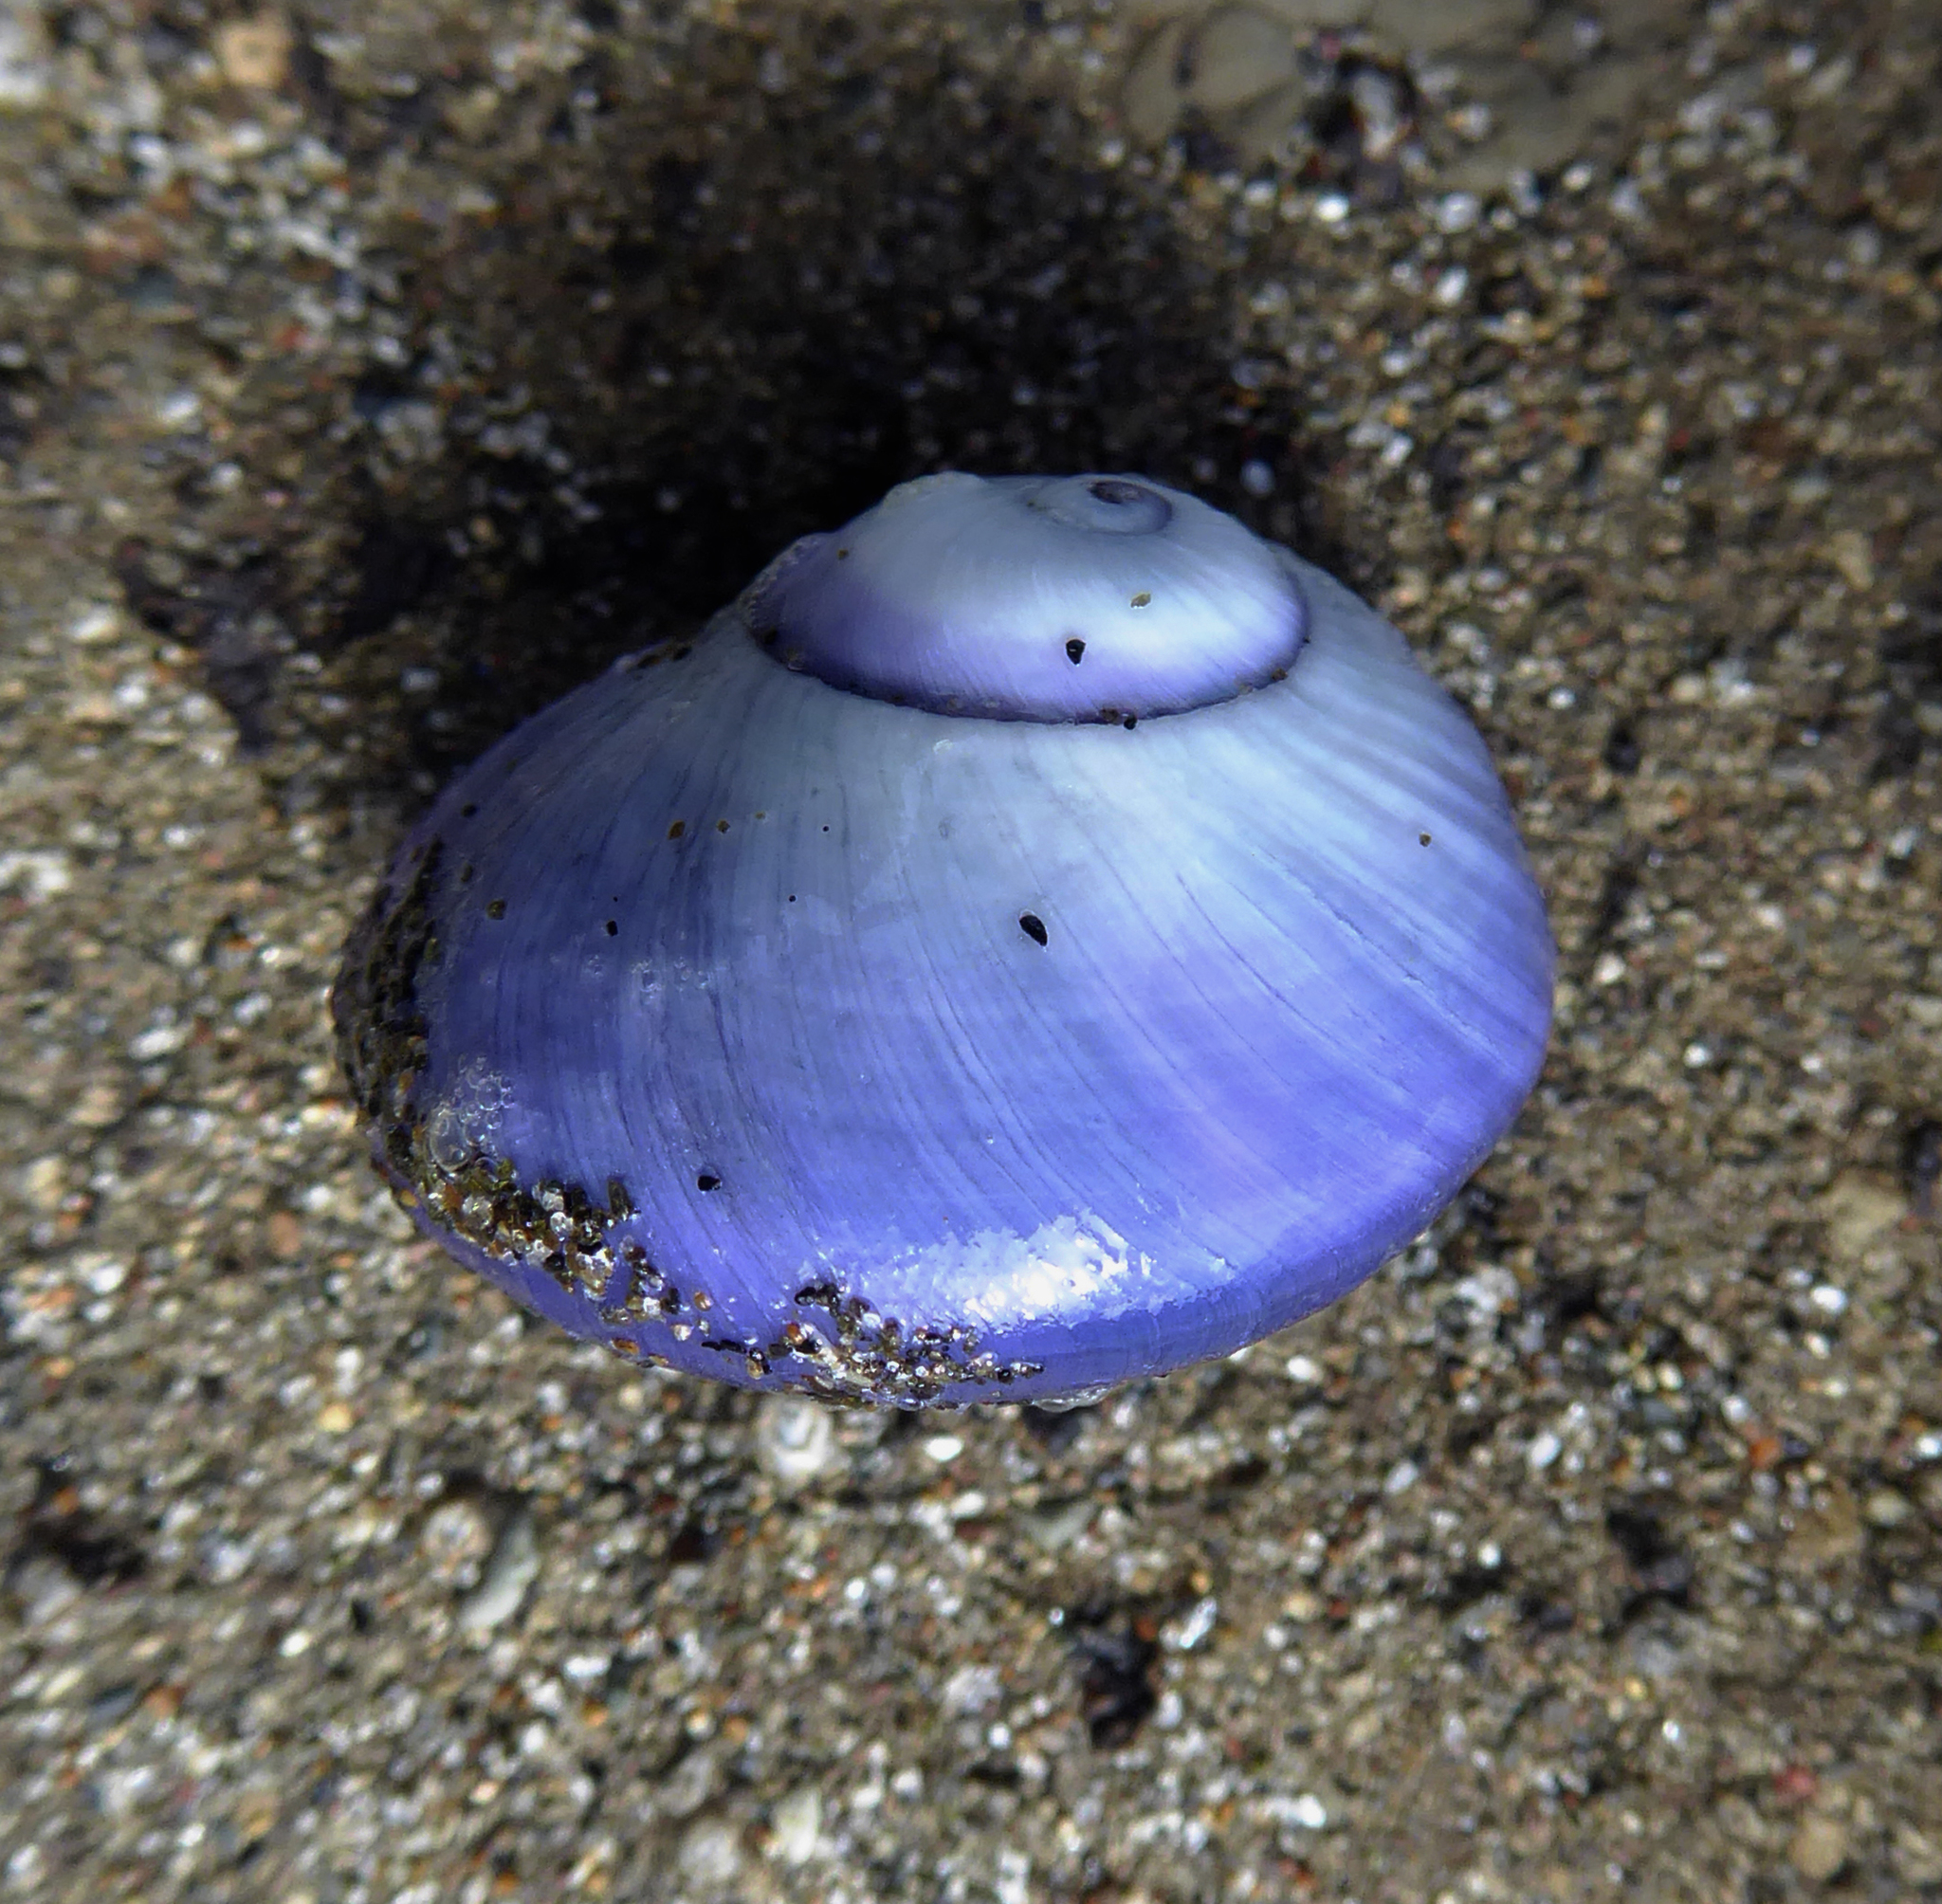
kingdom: Animalia
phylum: Mollusca
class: Gastropoda
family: Epitoniidae
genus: Janthina
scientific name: Janthina janthina
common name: Common janthina
